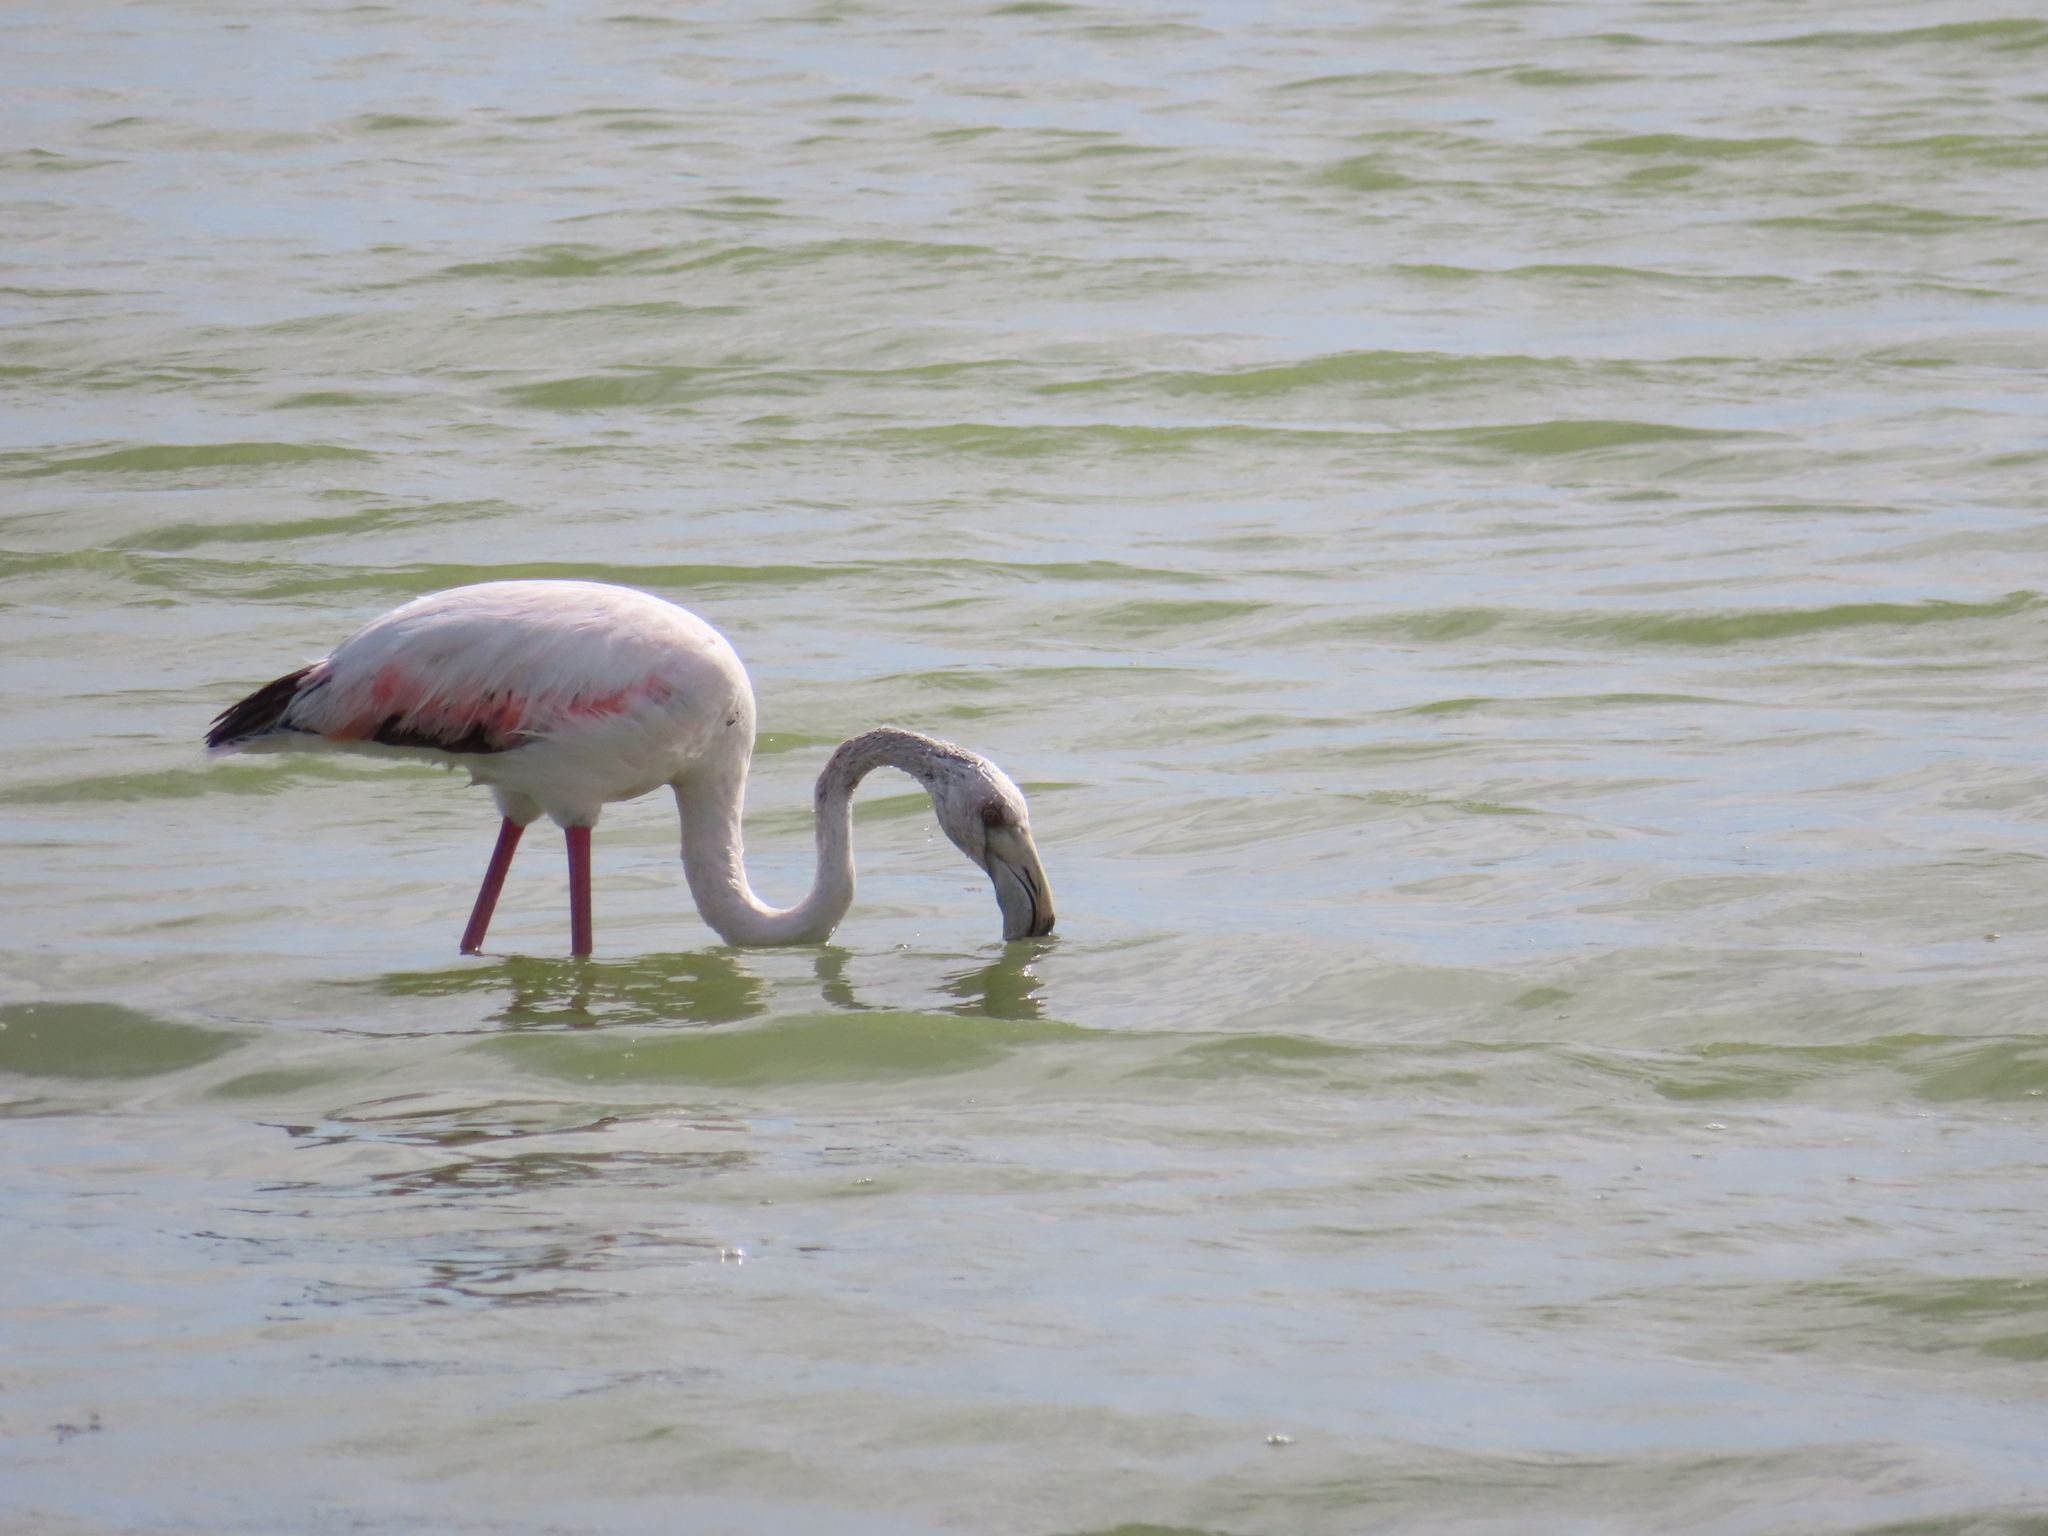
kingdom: Animalia
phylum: Chordata
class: Aves
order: Phoenicopteriformes
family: Phoenicopteridae
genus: Phoenicopterus
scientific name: Phoenicopterus roseus
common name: Greater flamingo
